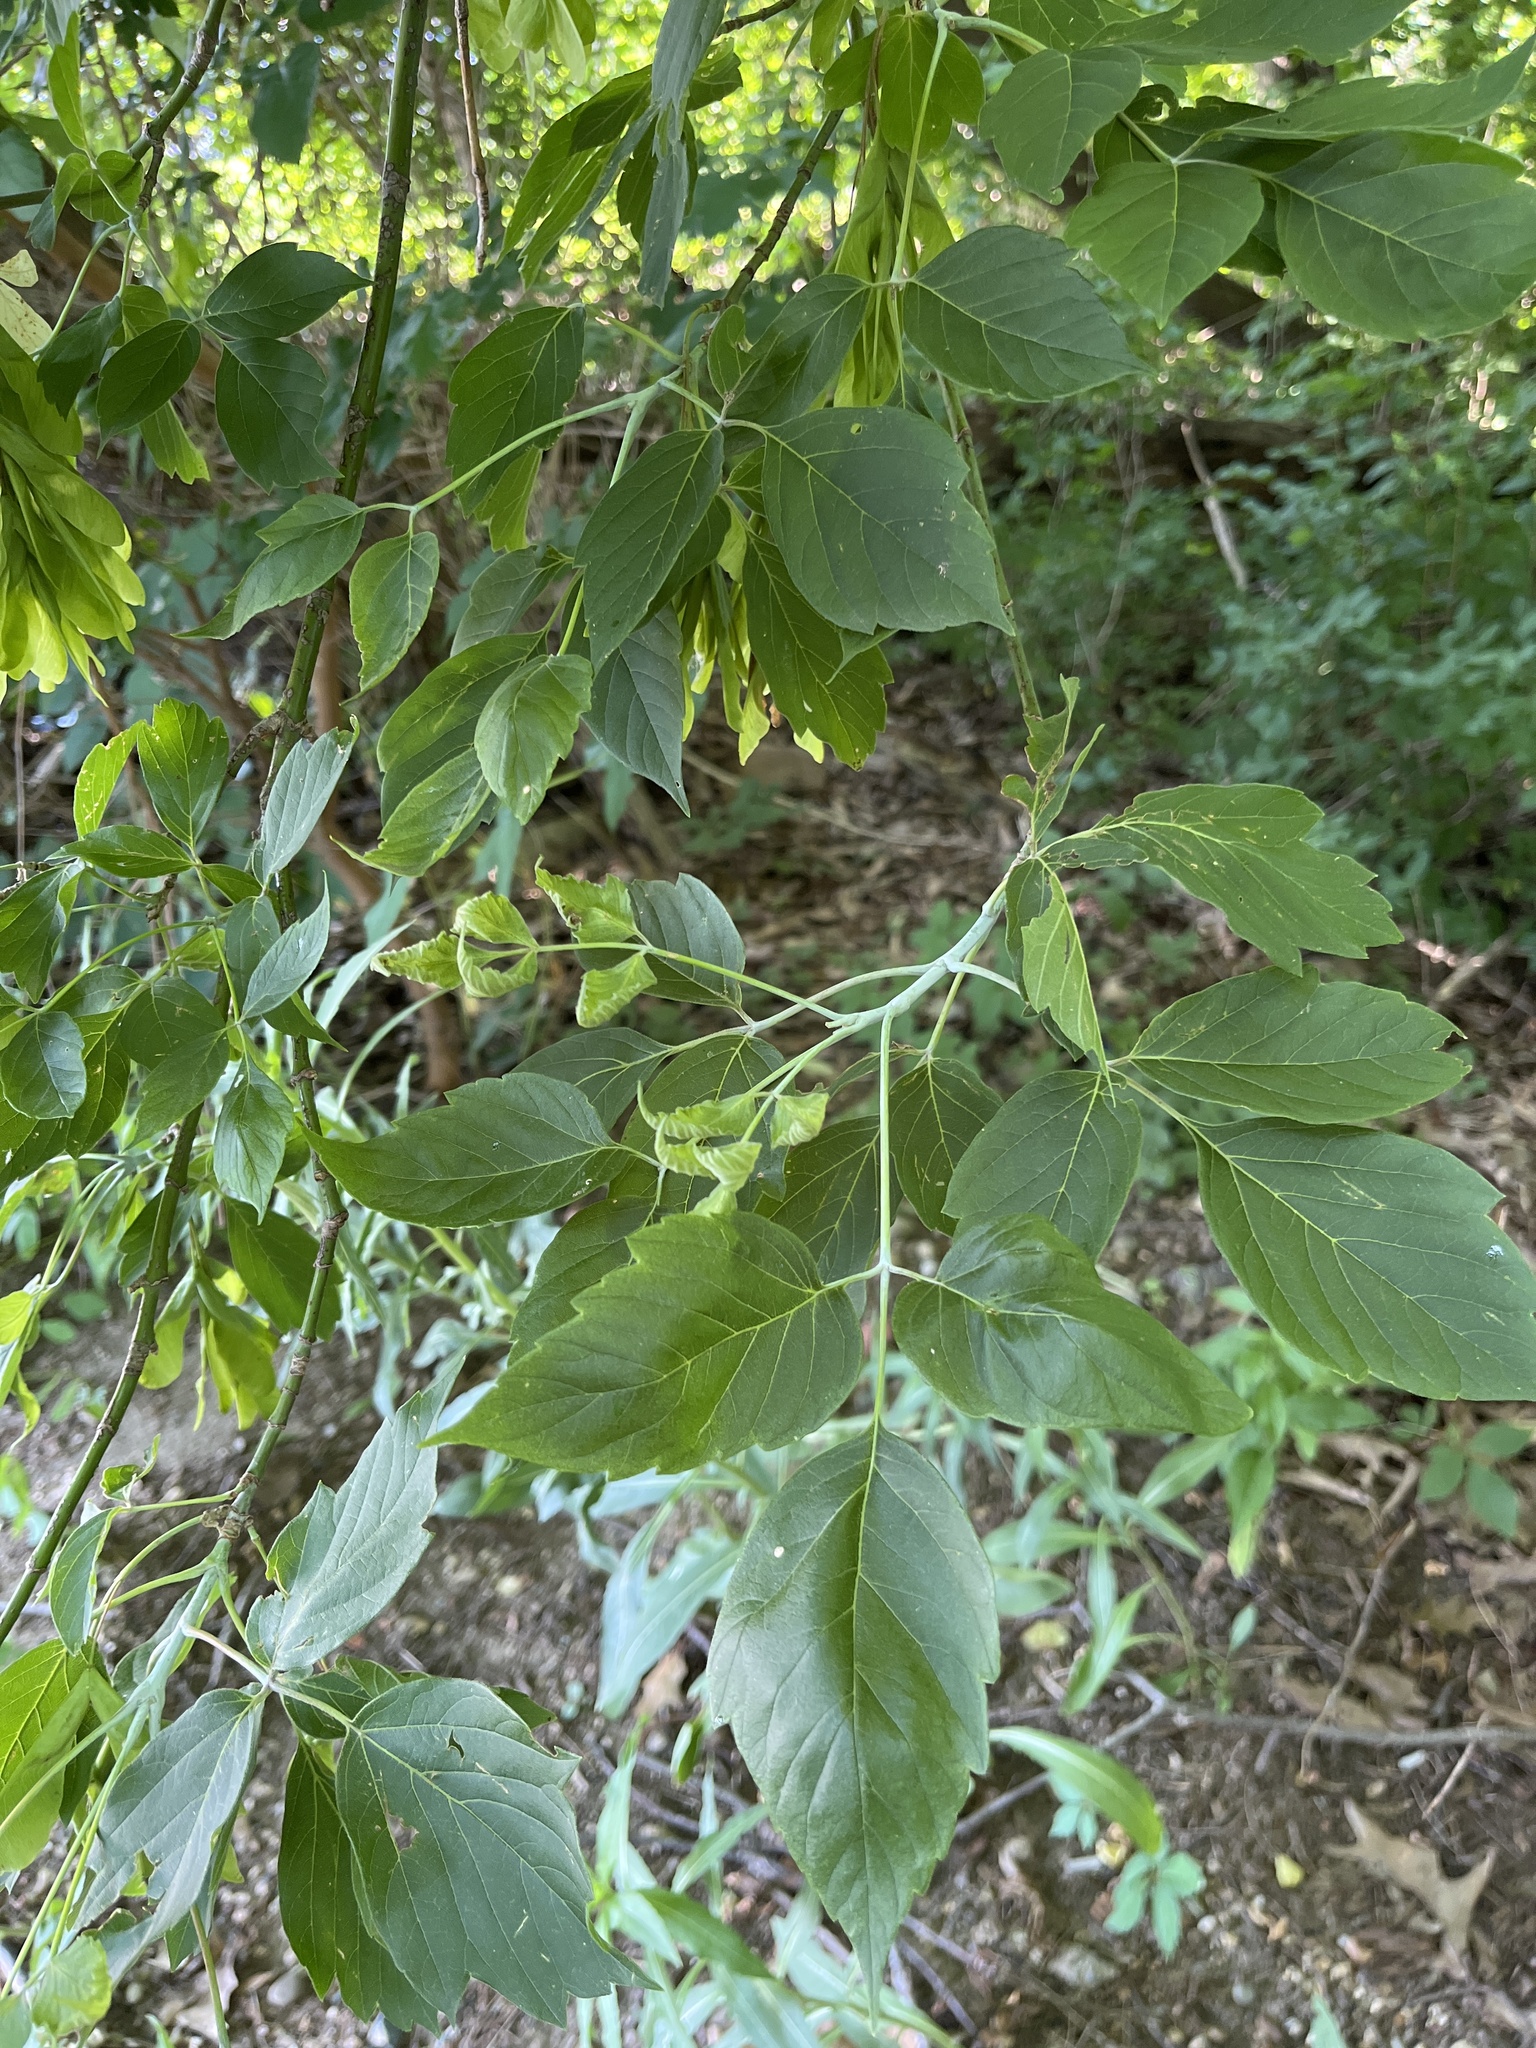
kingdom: Plantae
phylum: Tracheophyta
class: Magnoliopsida
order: Sapindales
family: Sapindaceae
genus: Acer
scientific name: Acer negundo
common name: Ashleaf maple
